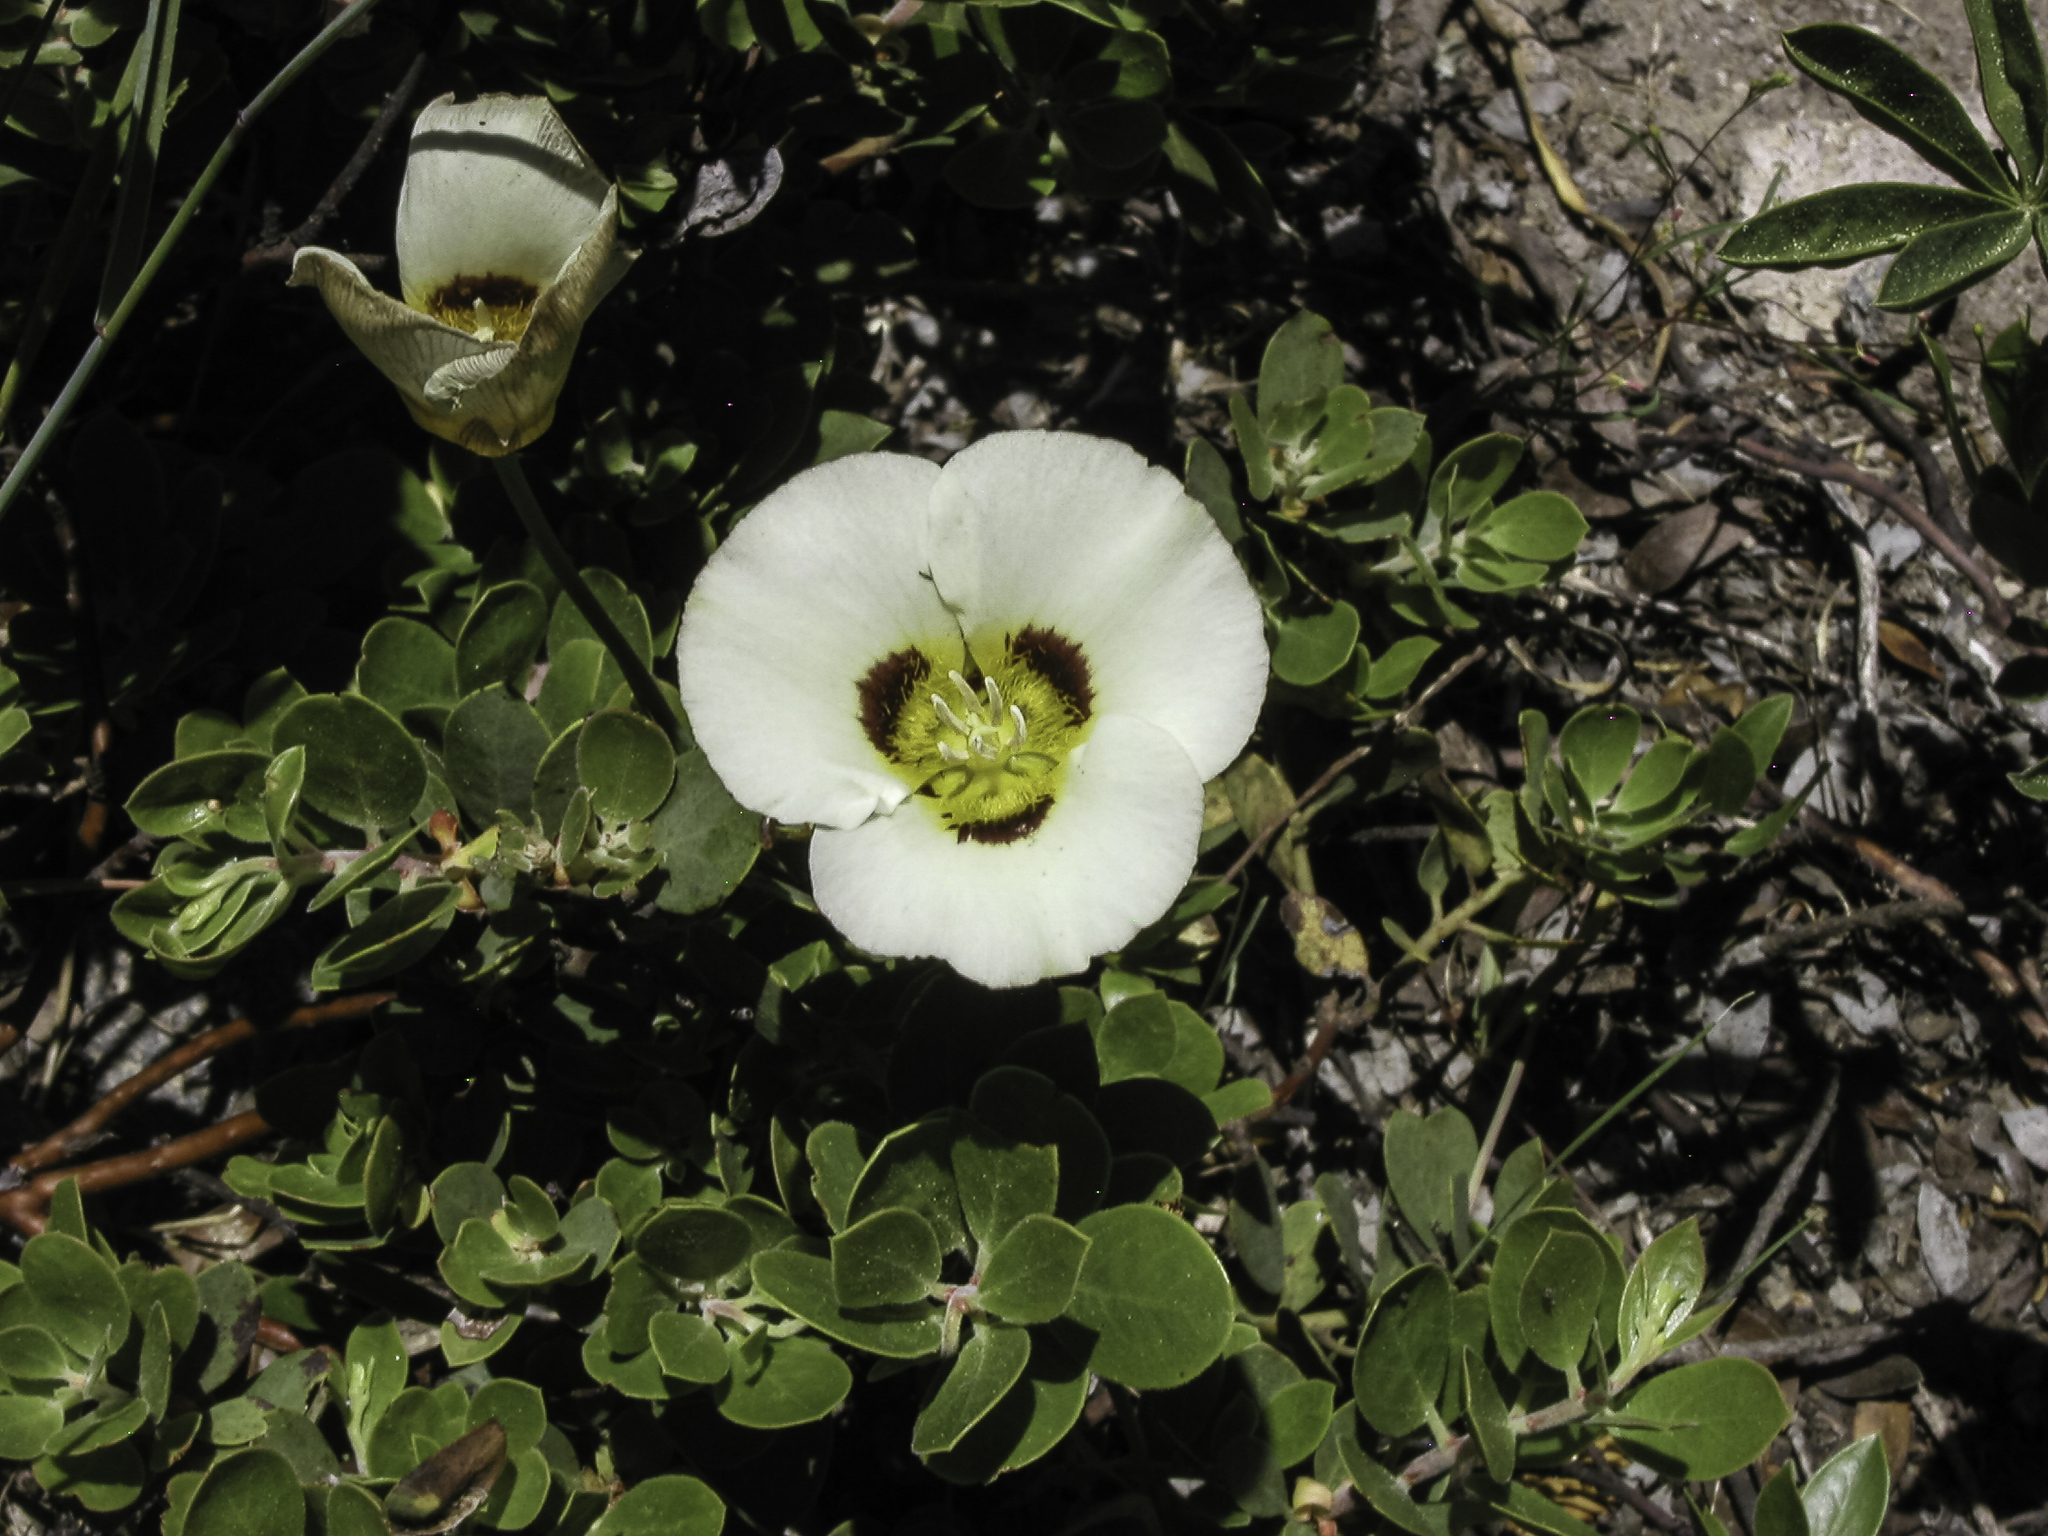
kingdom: Plantae
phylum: Tracheophyta
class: Liliopsida
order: Liliales
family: Liliaceae
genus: Calochortus
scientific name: Calochortus leichtlinii
